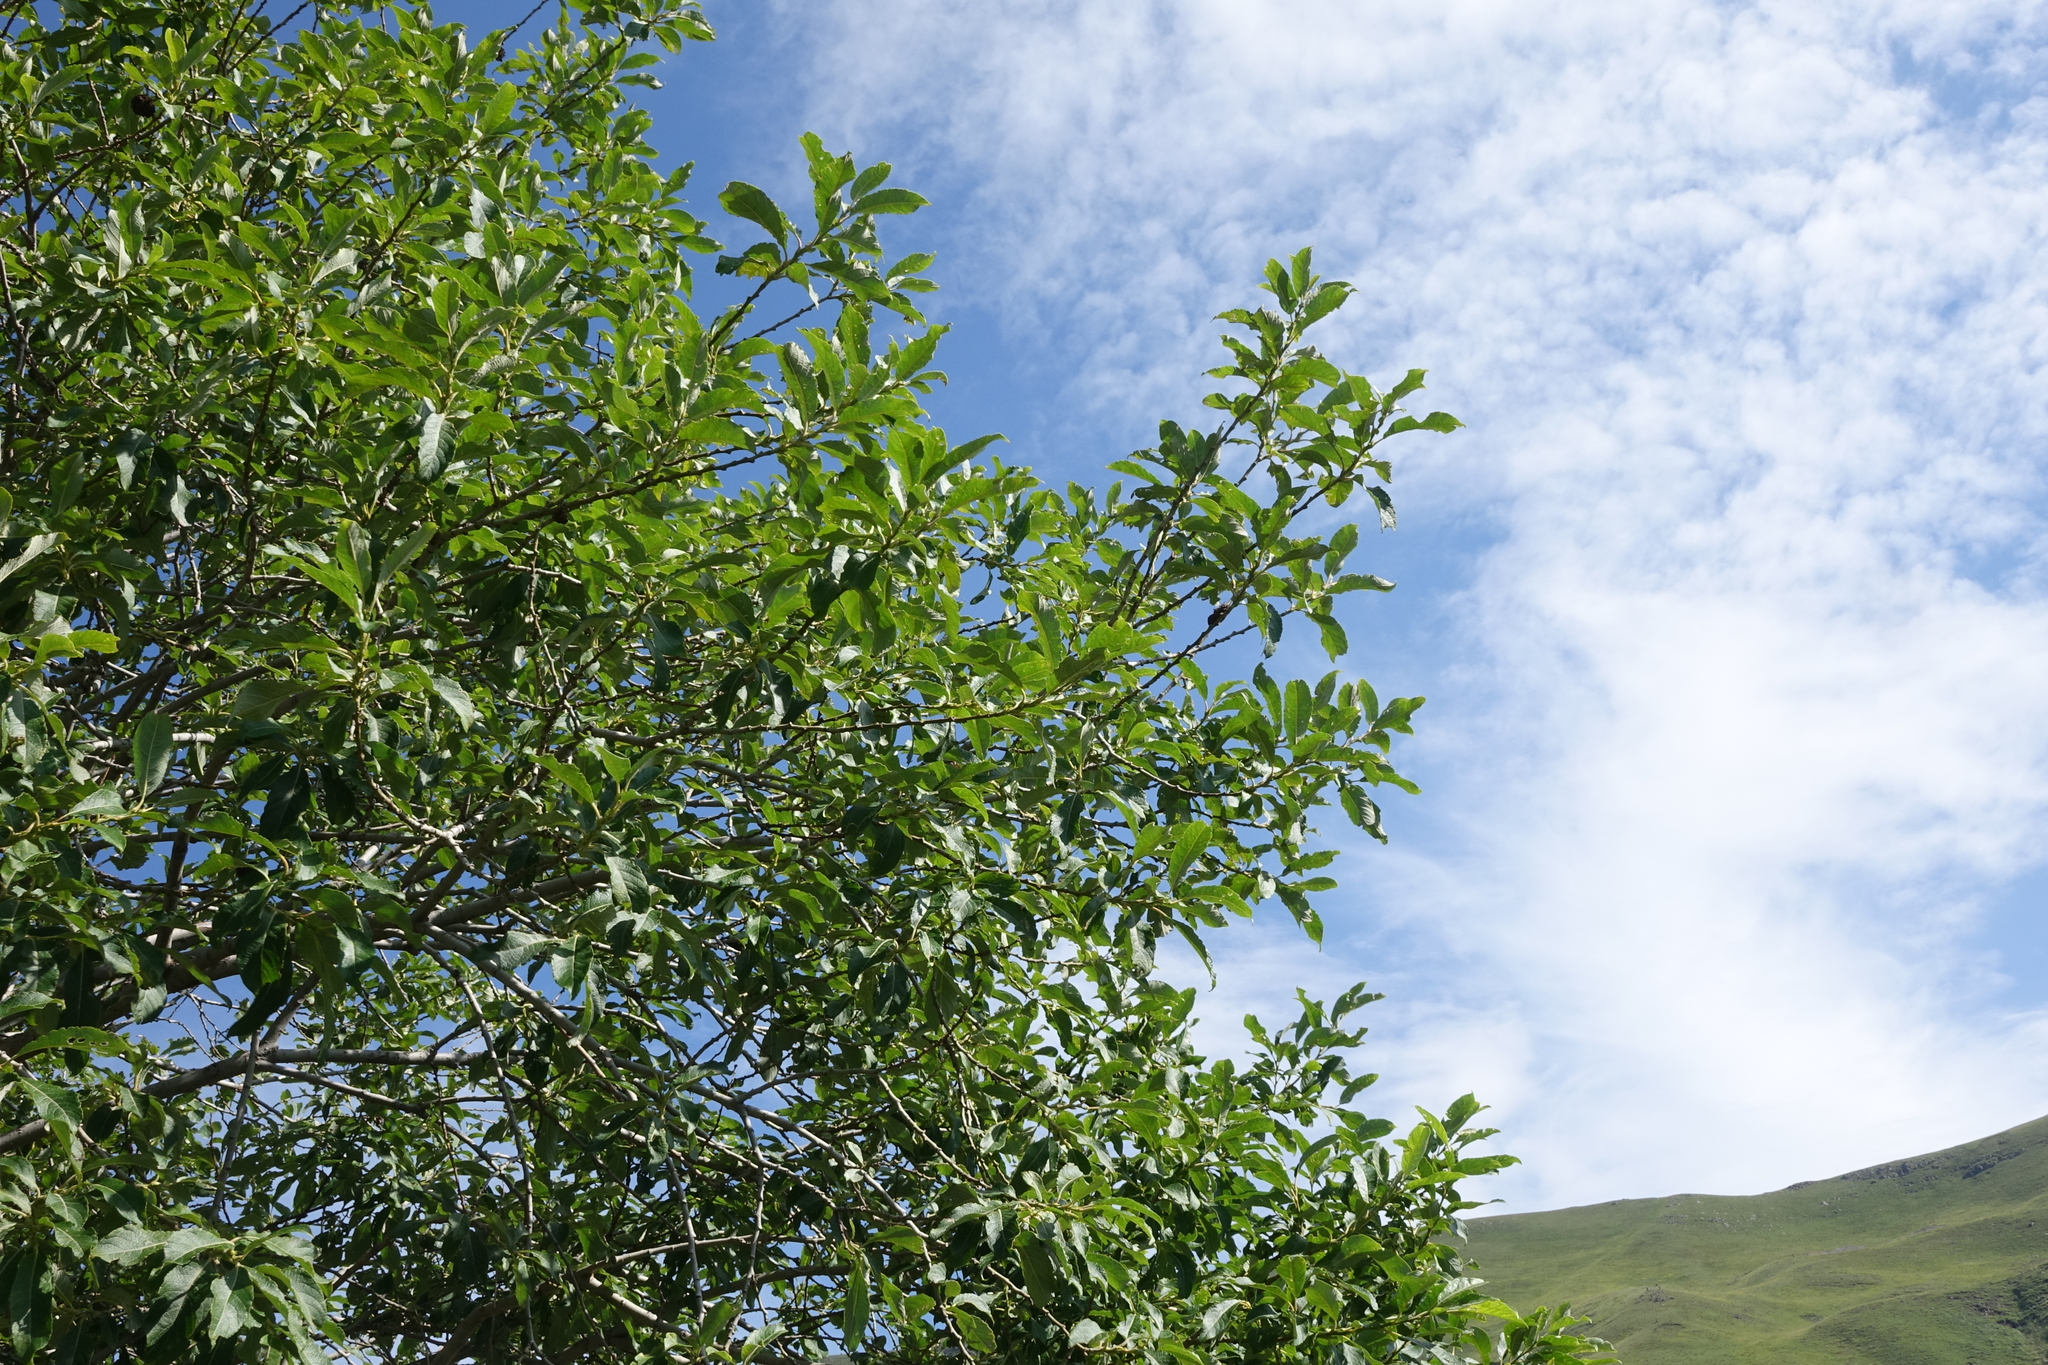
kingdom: Plantae
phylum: Tracheophyta
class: Magnoliopsida
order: Malpighiales
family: Salicaceae
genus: Salix
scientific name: Salix caprea
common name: Goat willow
